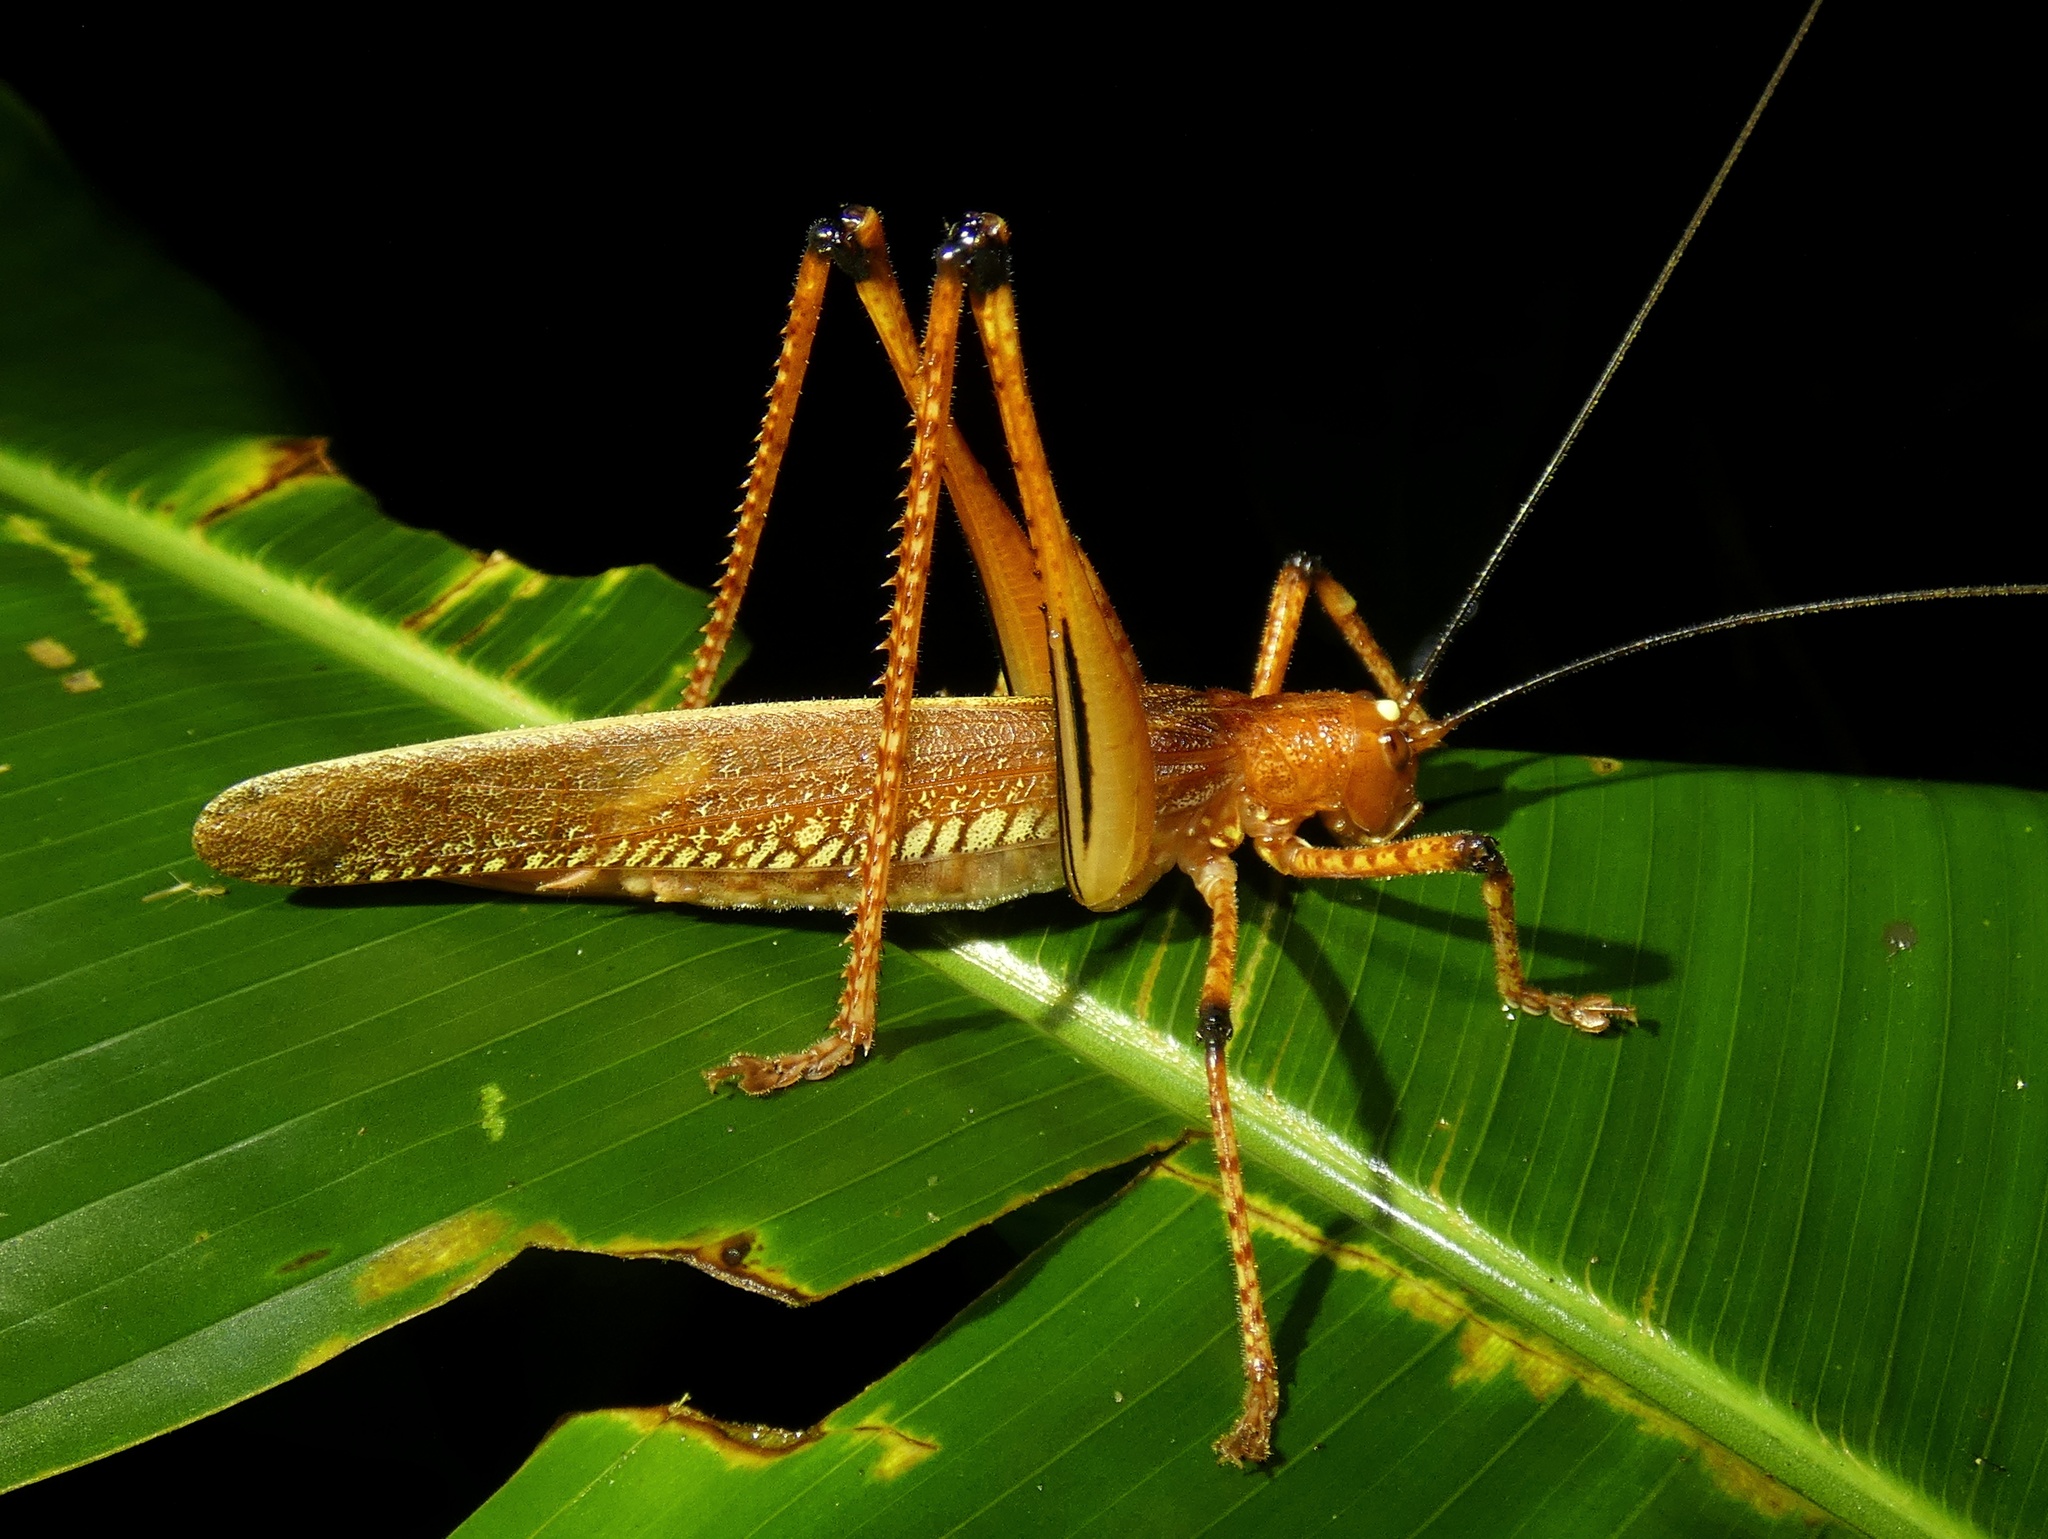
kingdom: Animalia
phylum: Arthropoda
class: Insecta
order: Orthoptera
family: Tettigoniidae
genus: Ischnomela
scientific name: Ischnomela gracilis
